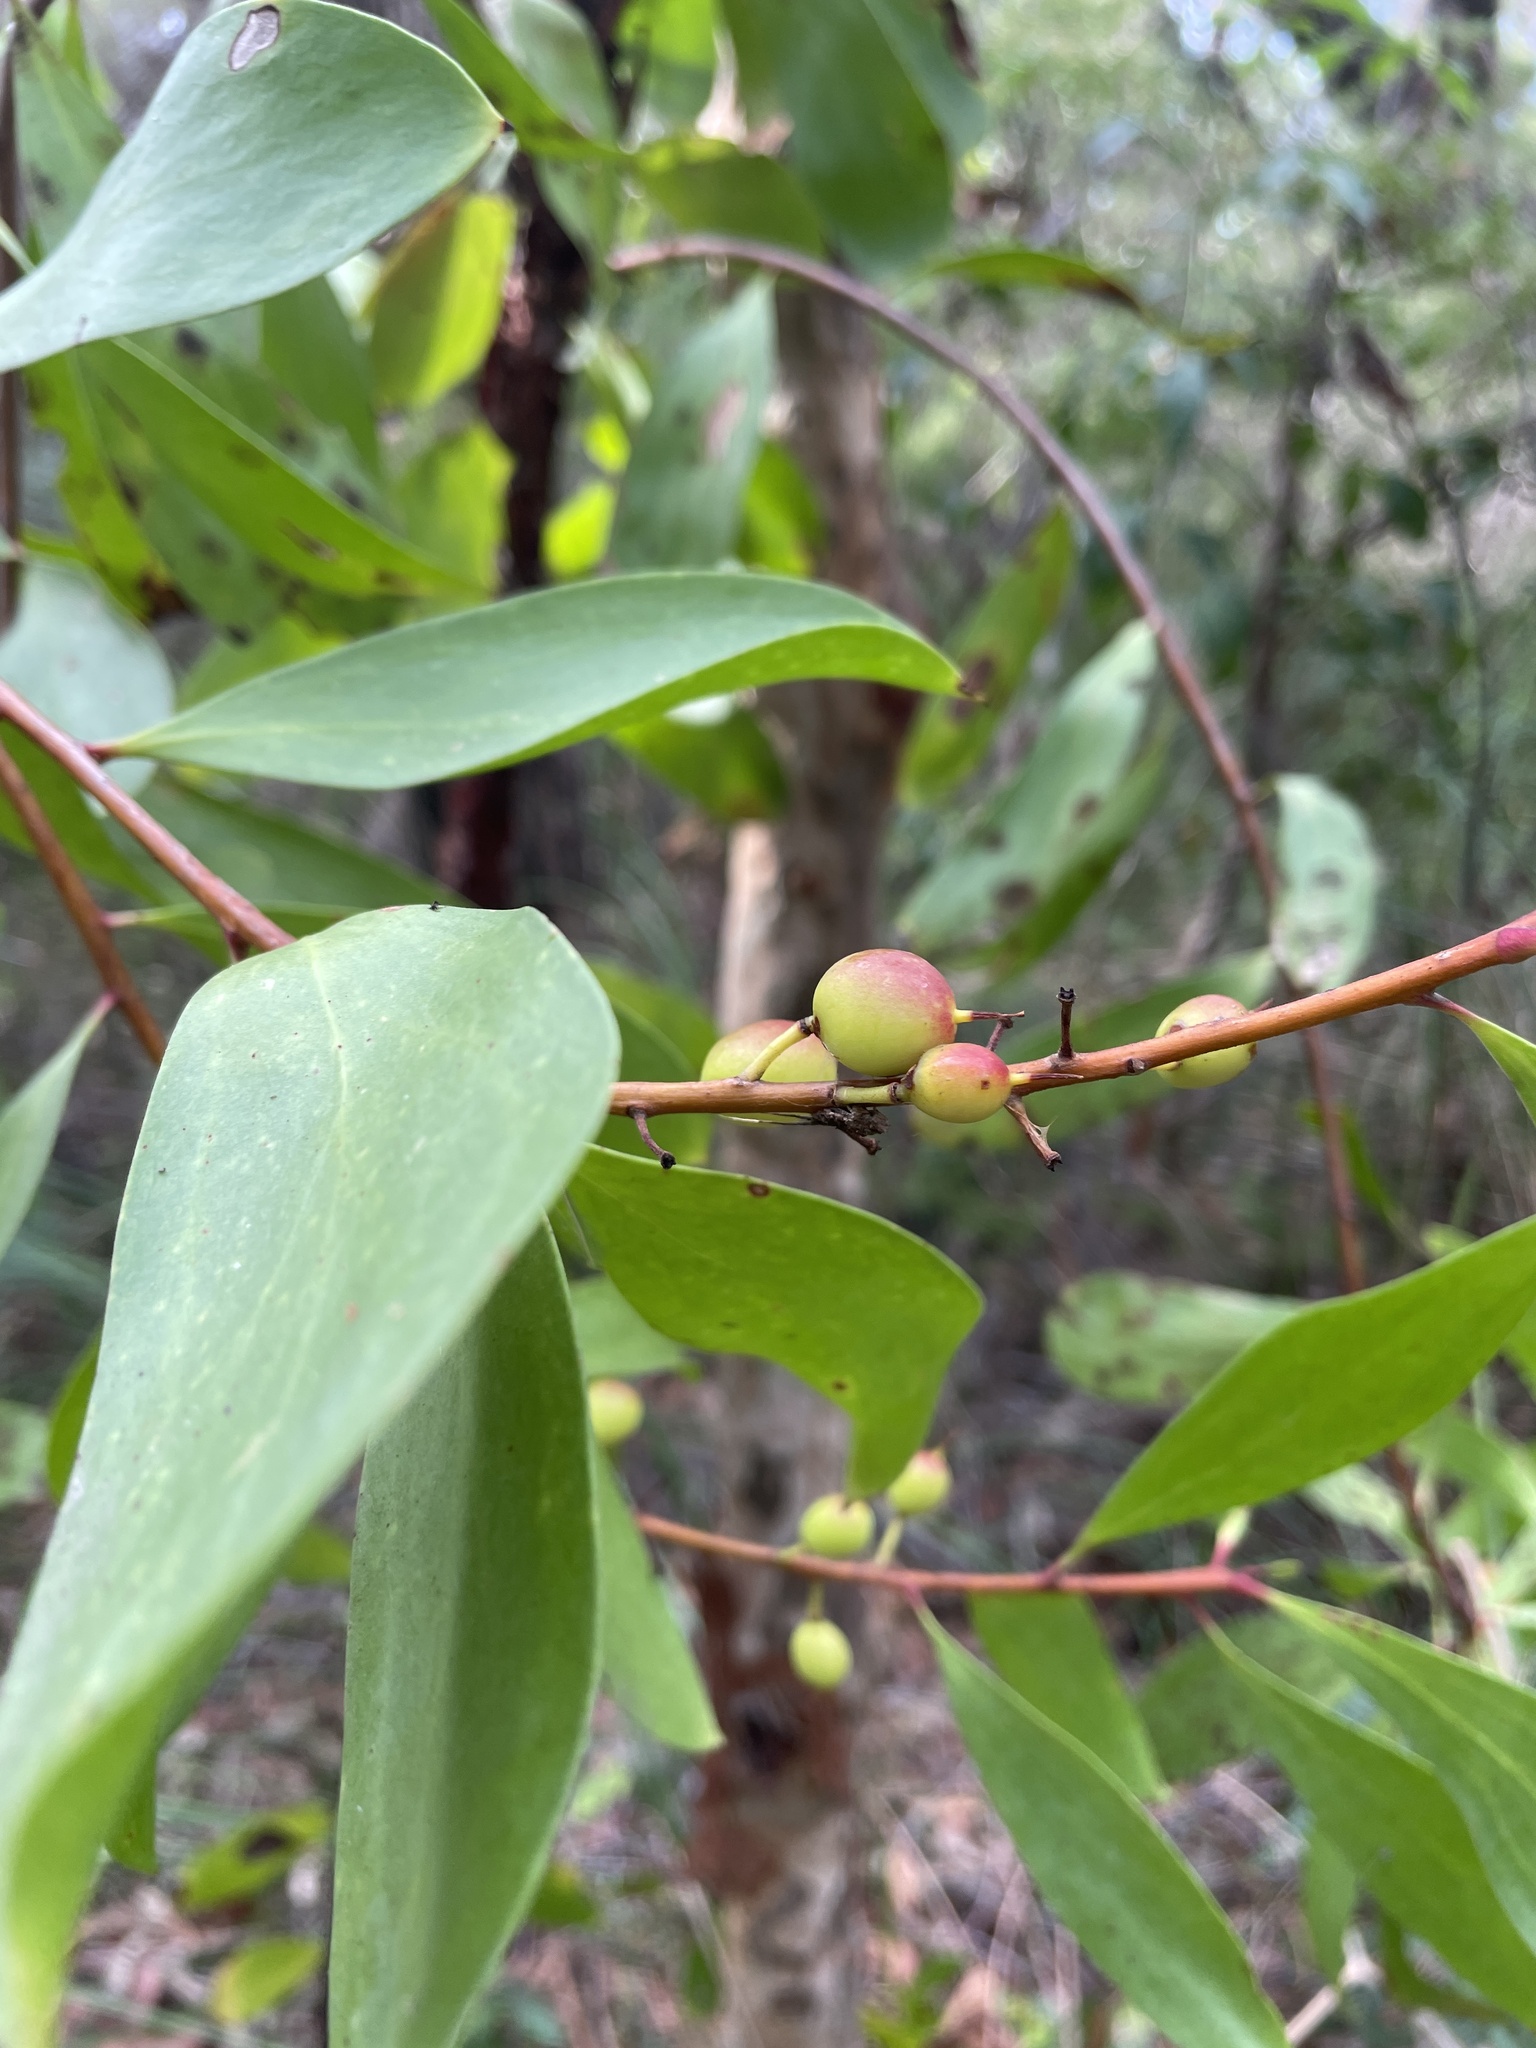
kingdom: Plantae
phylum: Tracheophyta
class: Magnoliopsida
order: Proteales
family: Proteaceae
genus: Persoonia
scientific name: Persoonia levis
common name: Smooth geebung
